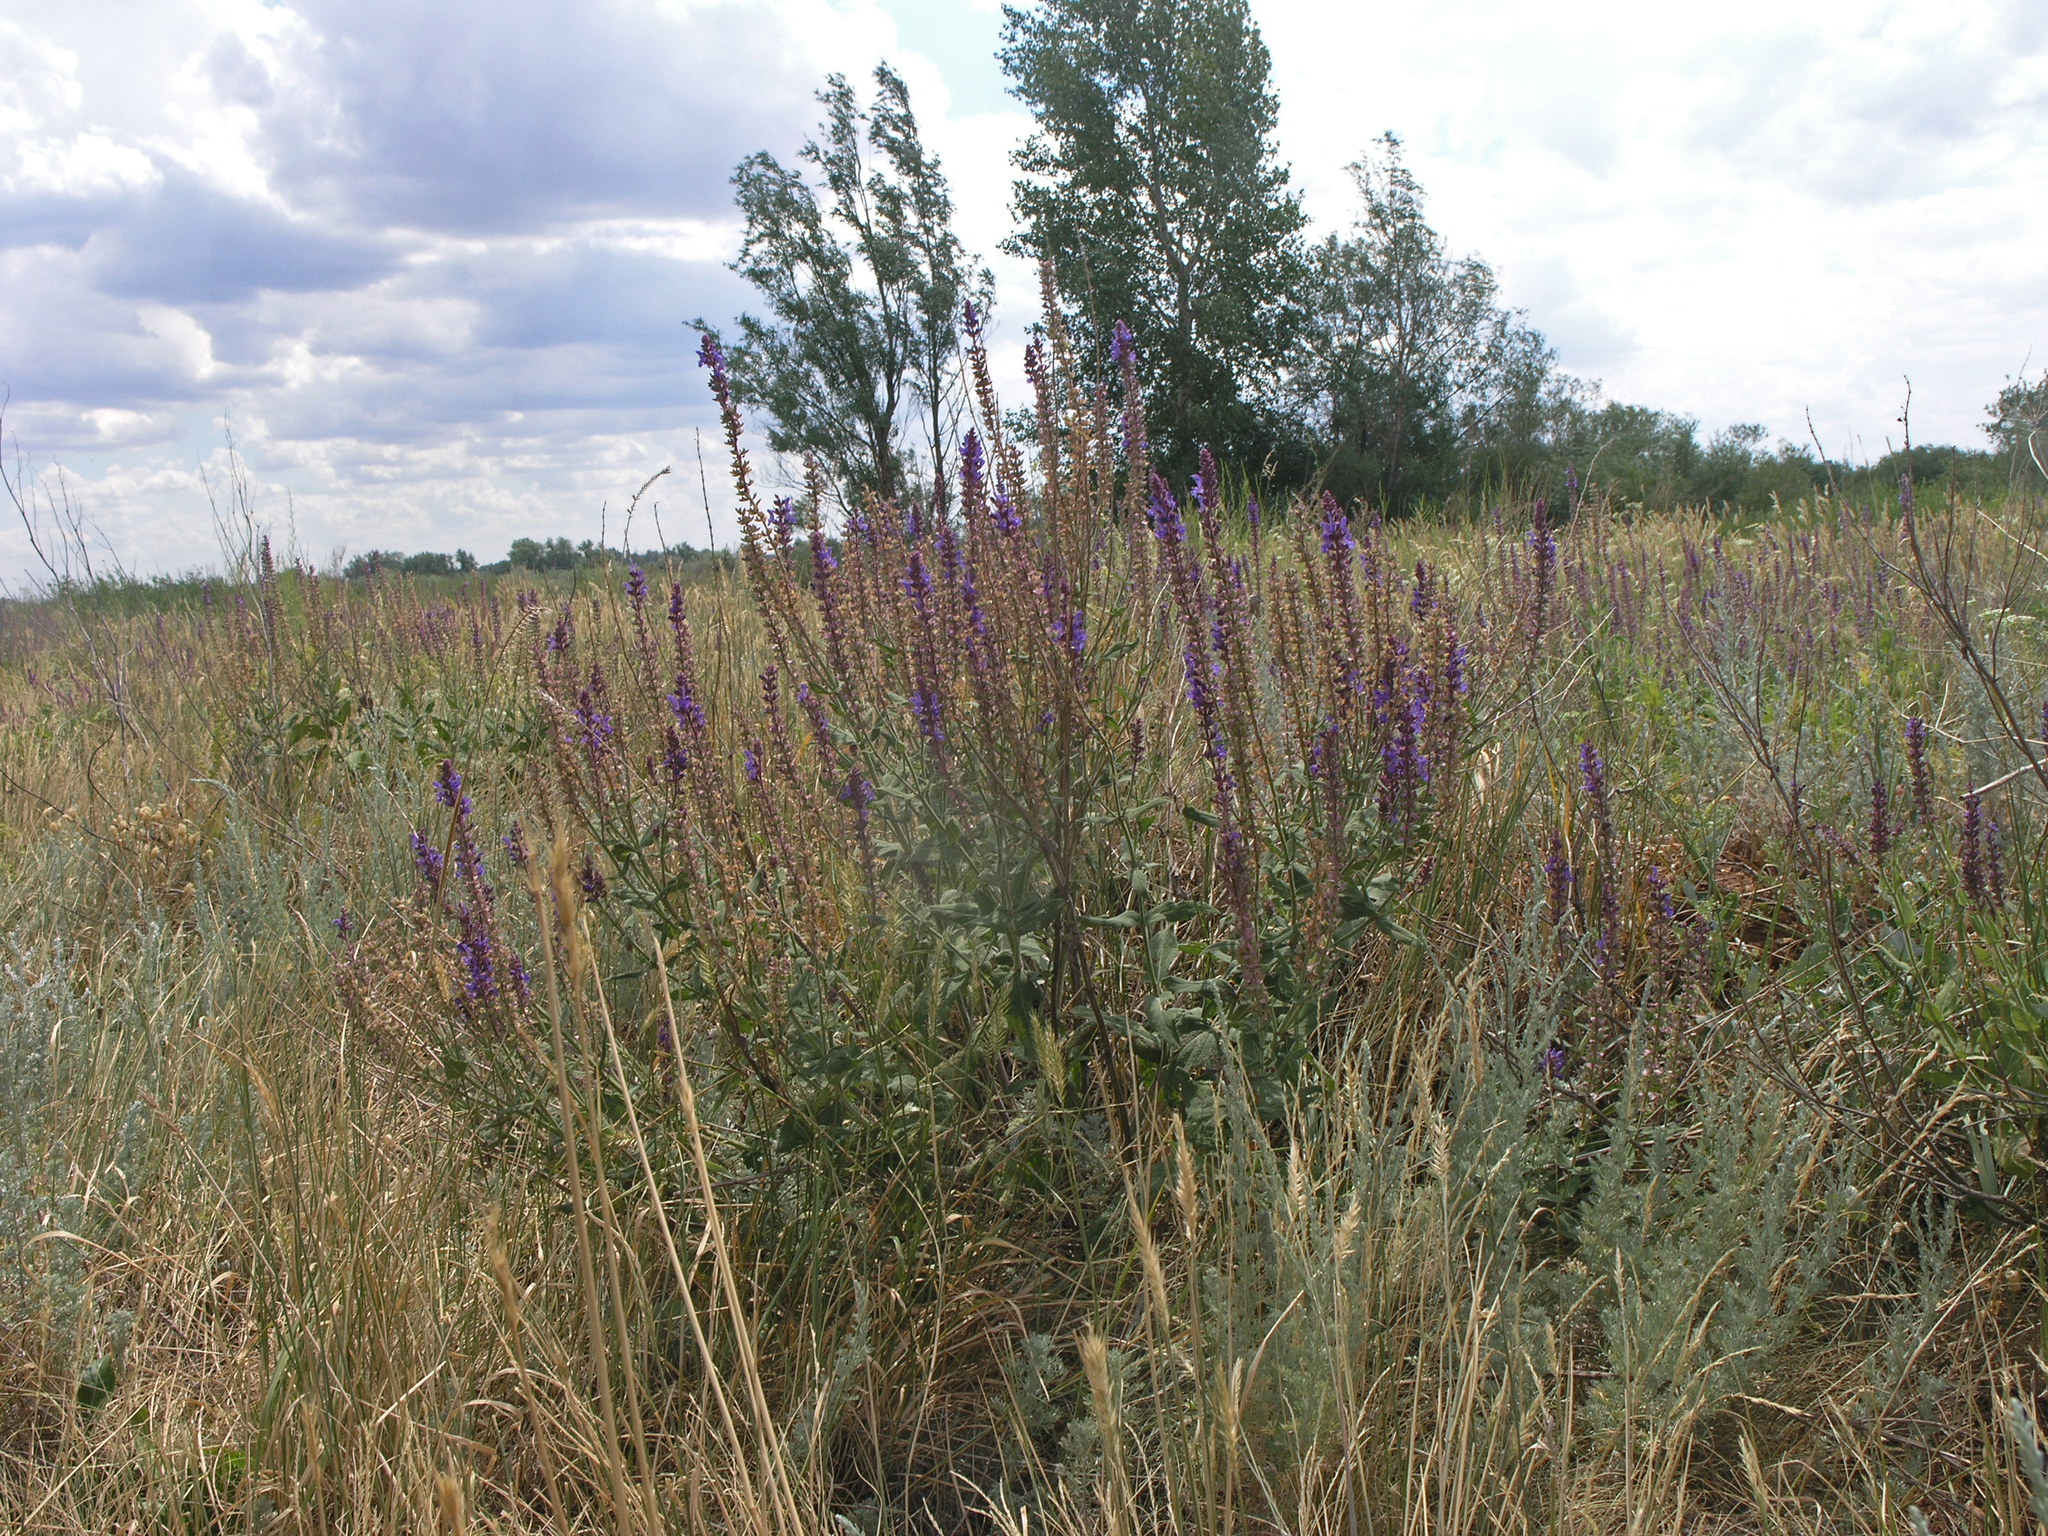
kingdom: Plantae
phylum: Tracheophyta
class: Magnoliopsida
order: Lamiales
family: Lamiaceae
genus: Salvia
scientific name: Salvia nemorosa
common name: Balkan clary
